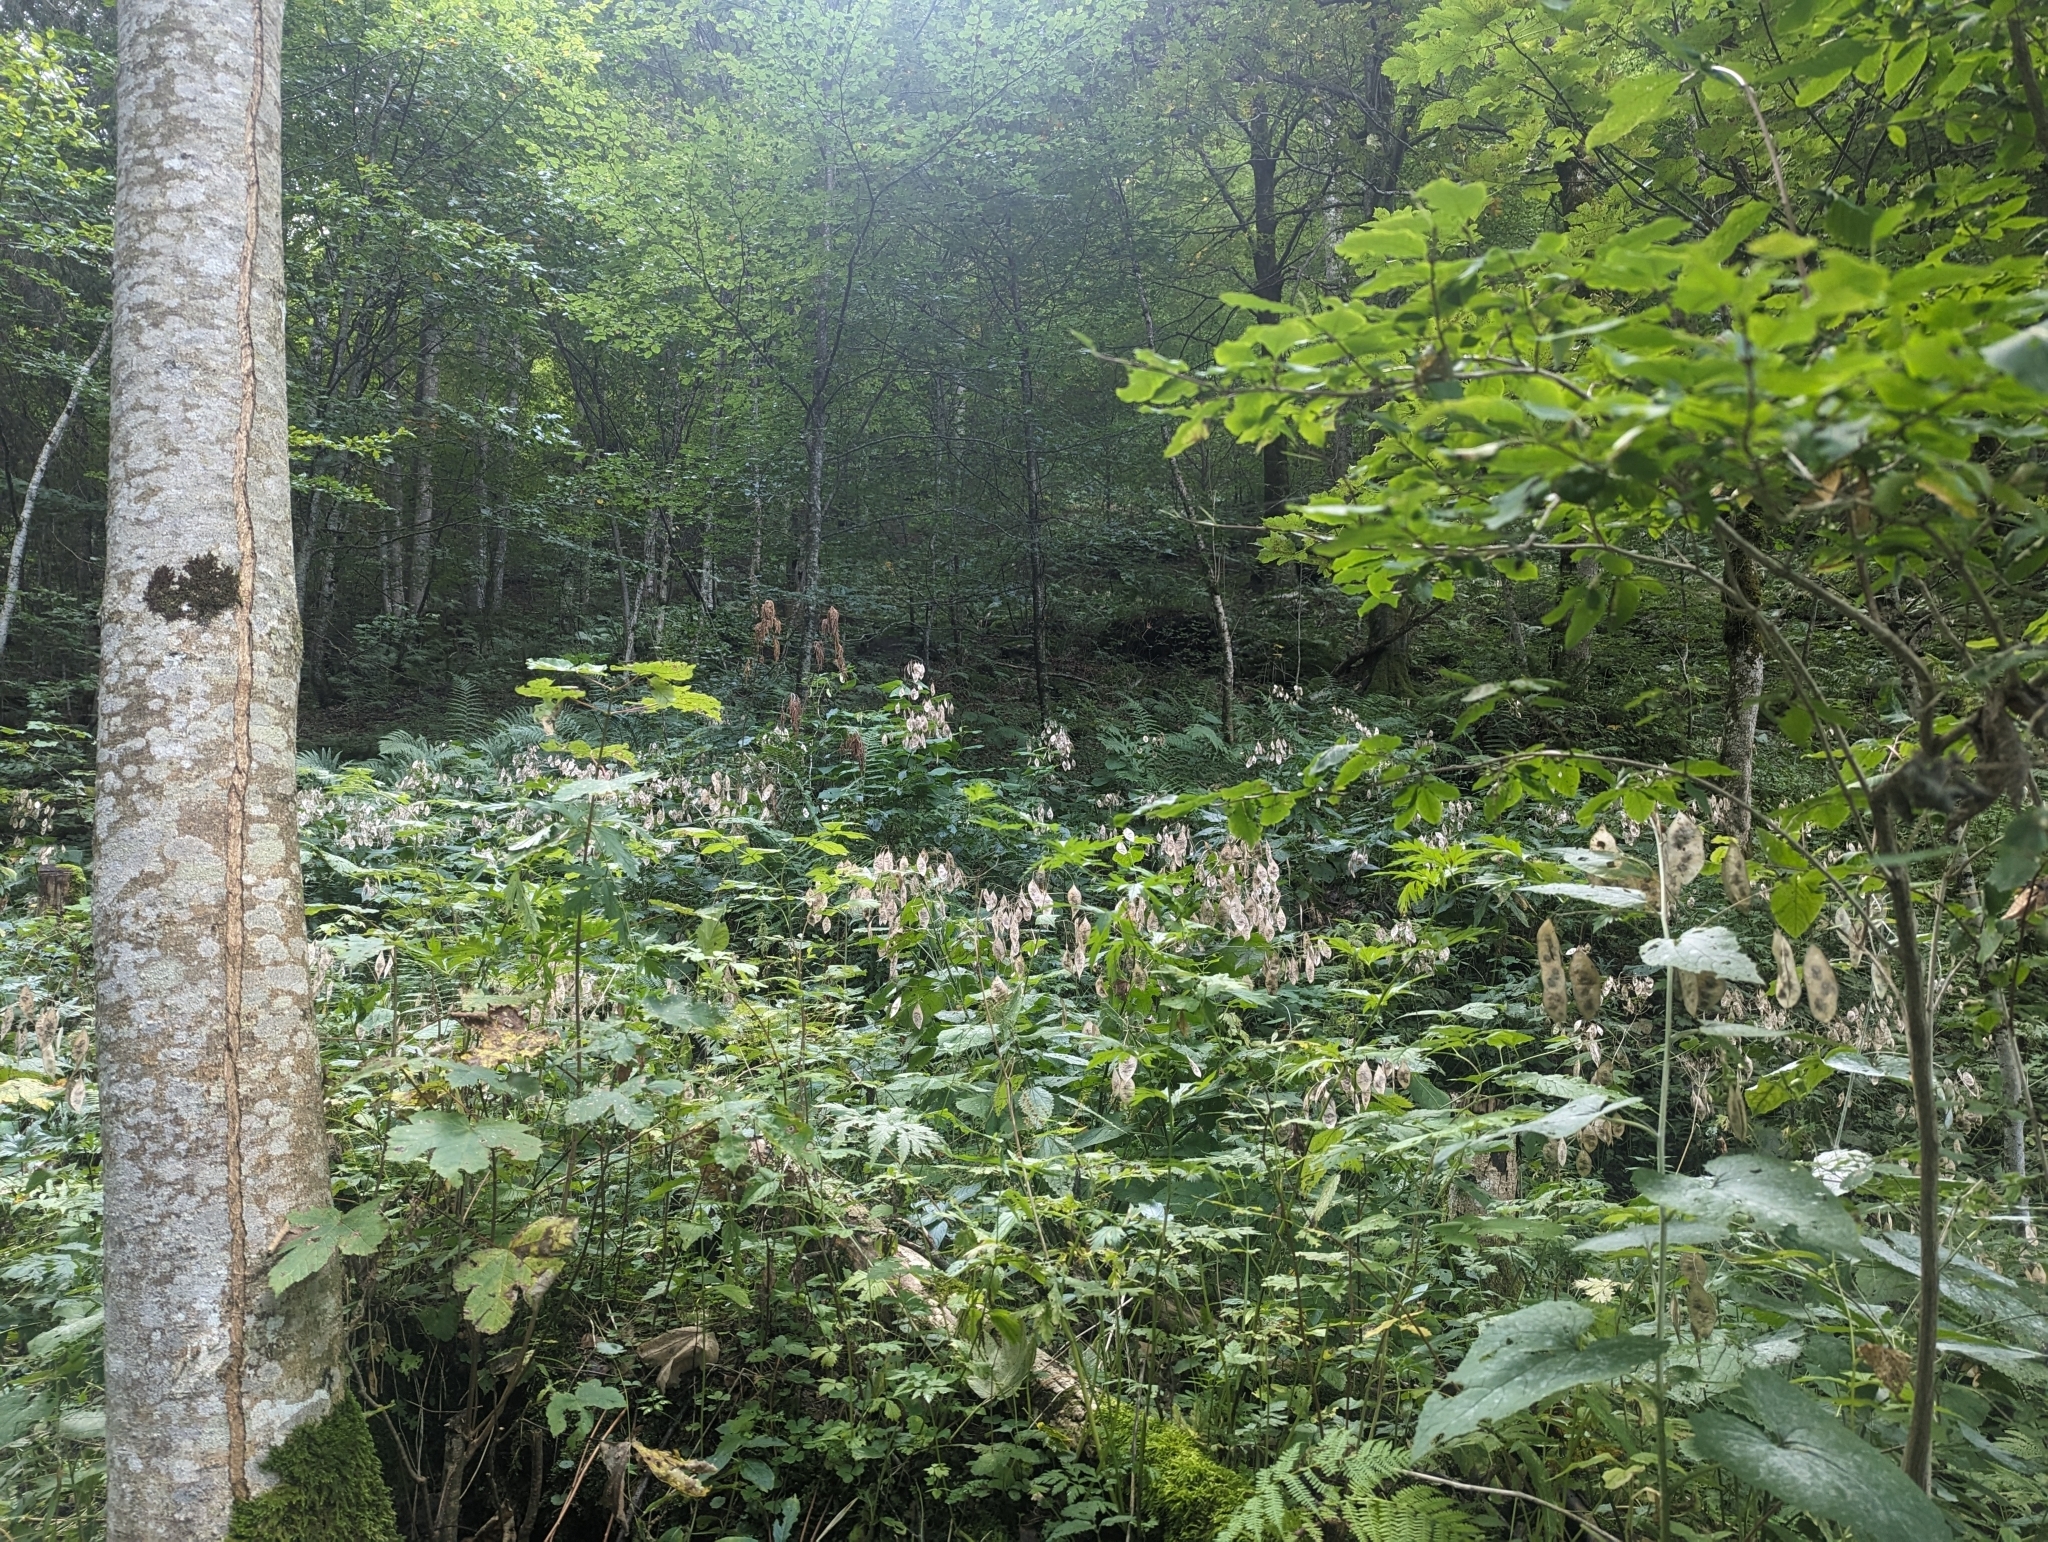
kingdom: Plantae
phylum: Tracheophyta
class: Magnoliopsida
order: Brassicales
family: Brassicaceae
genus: Lunaria
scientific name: Lunaria rediviva
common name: Perennial honesty
